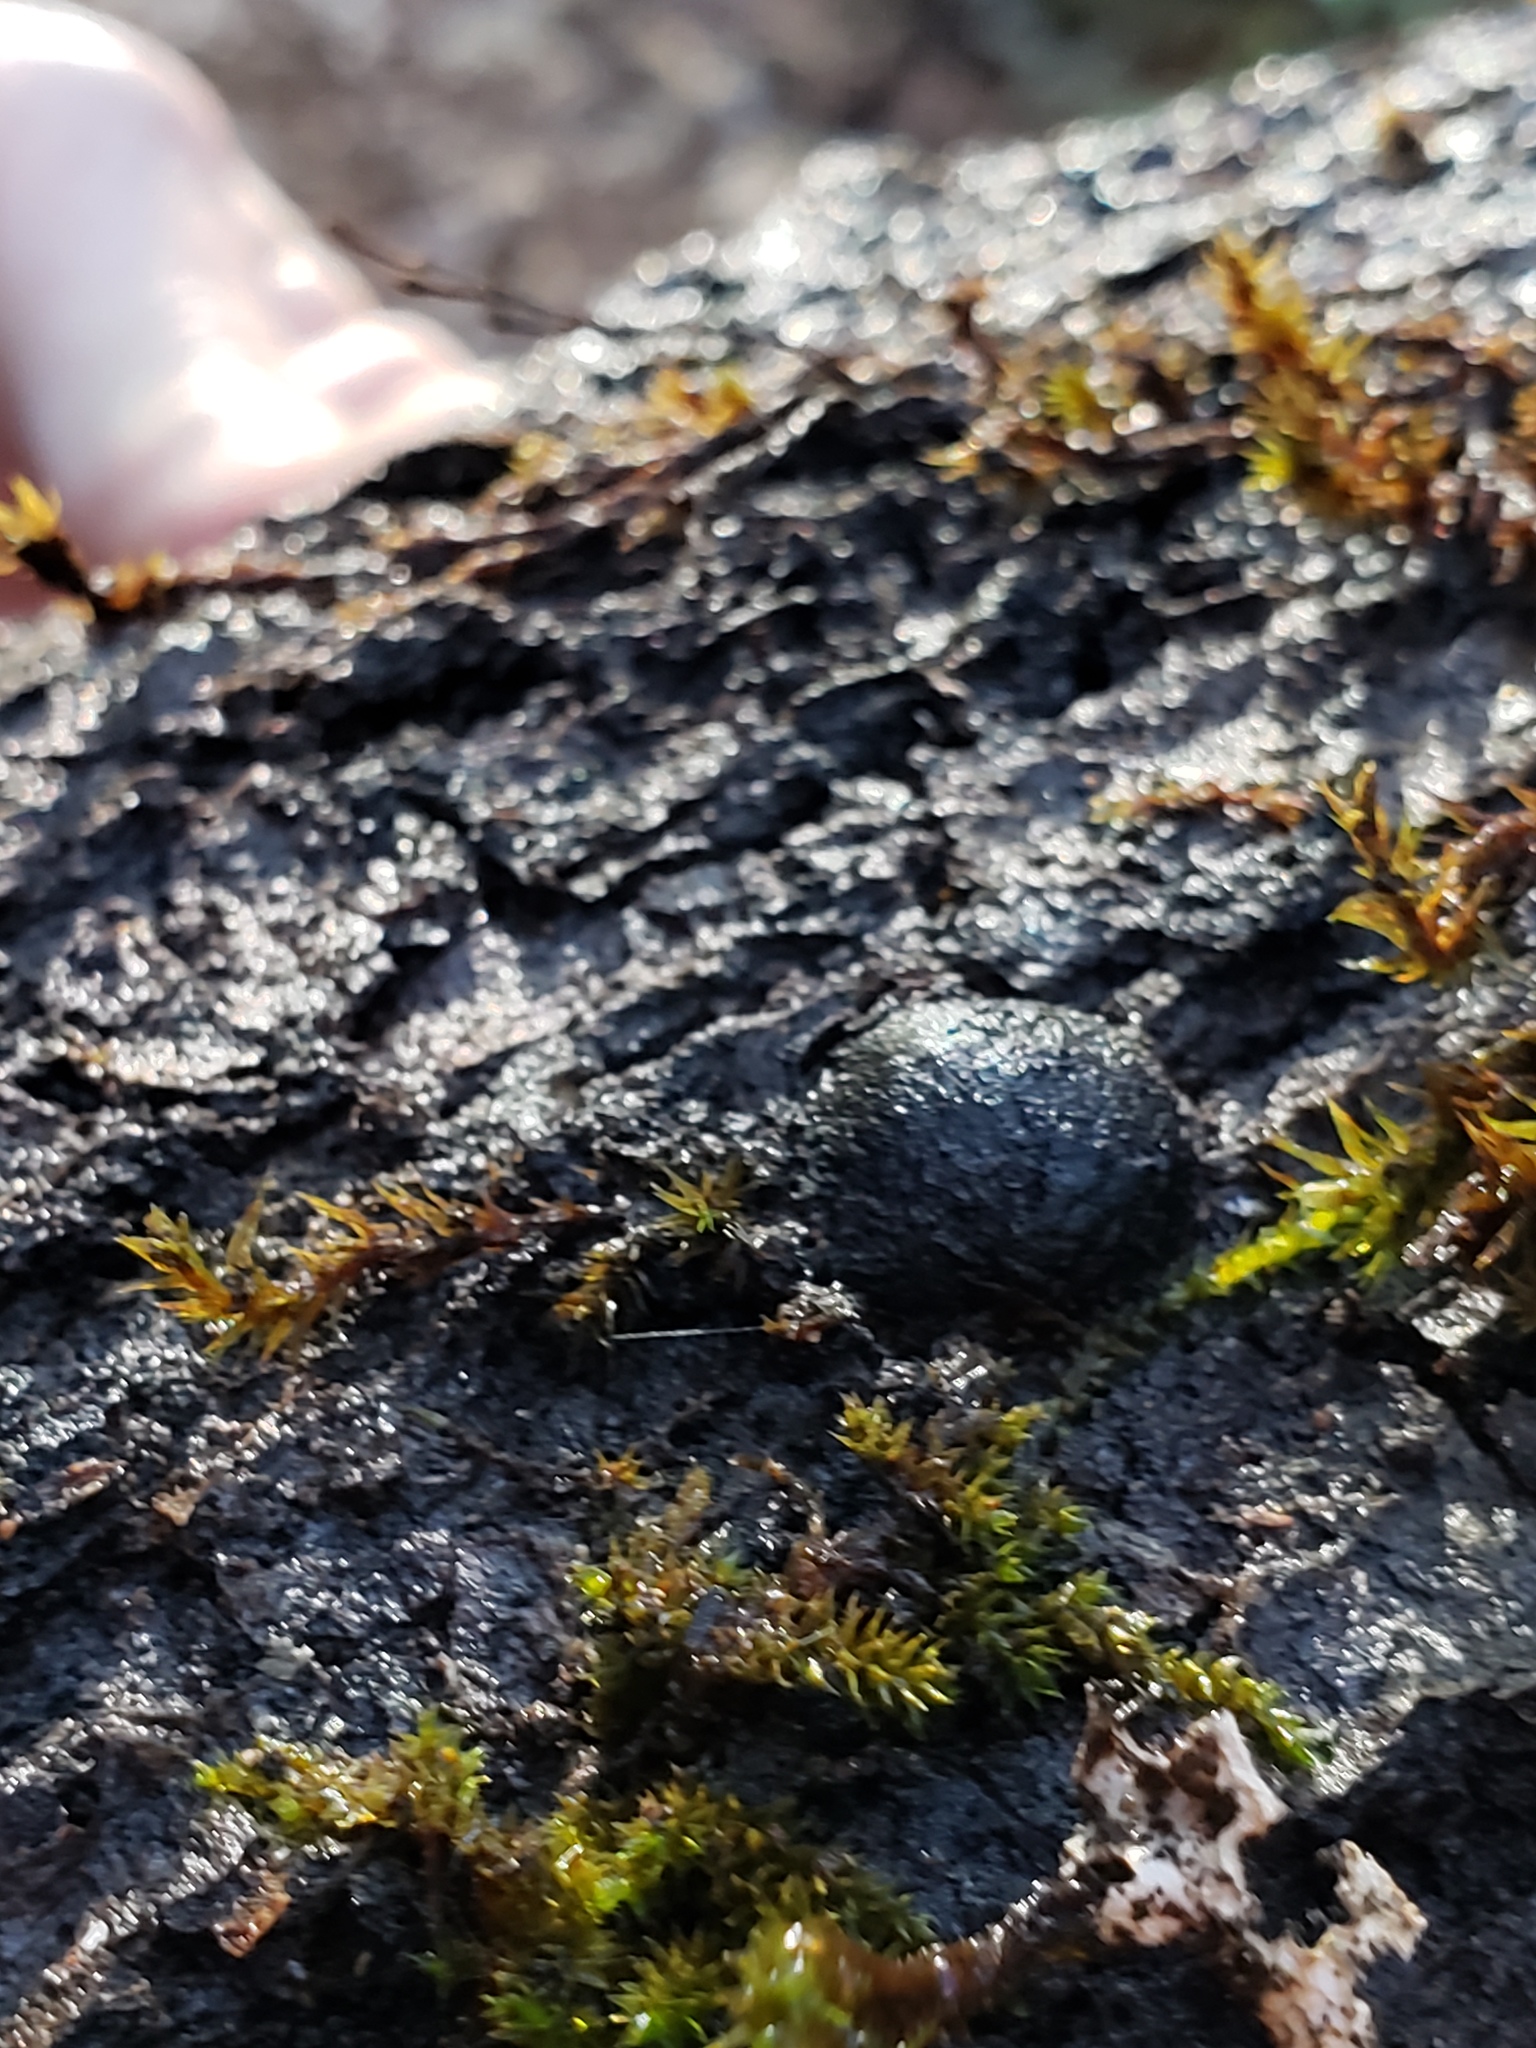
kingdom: Fungi
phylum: Ascomycota
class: Sordariomycetes
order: Xylariales
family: Hypoxylaceae
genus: Annulohypoxylon
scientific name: Annulohypoxylon thouarsianum
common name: Cramp balls
